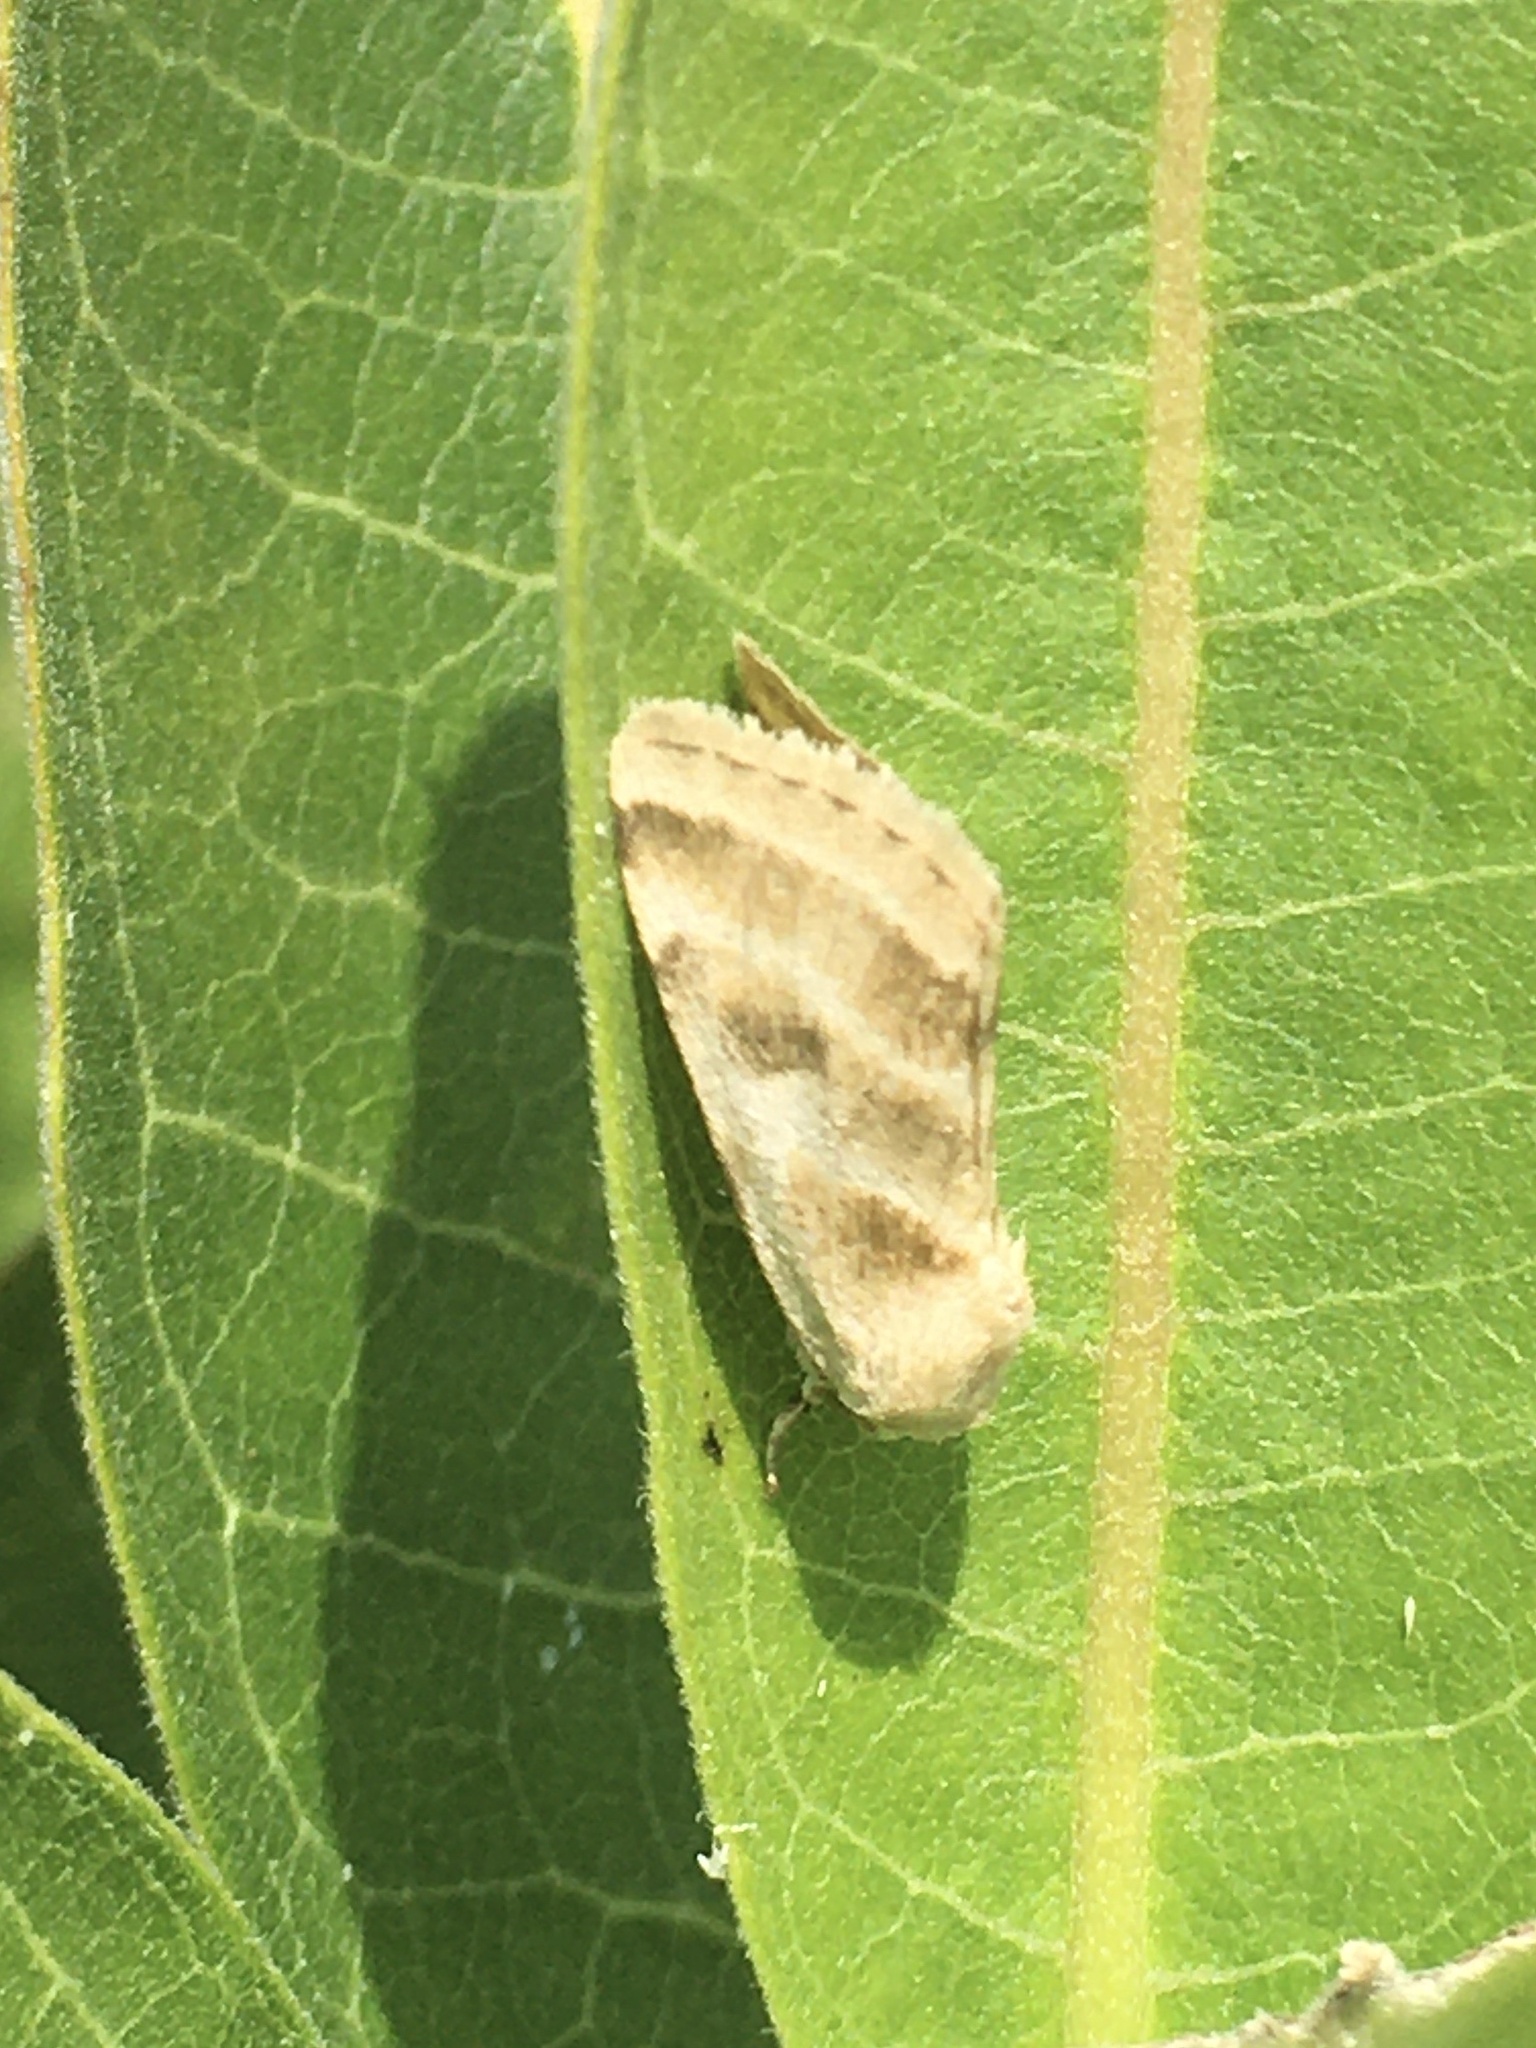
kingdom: Animalia
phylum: Arthropoda
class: Insecta
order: Lepidoptera
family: Noctuidae
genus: Schinia
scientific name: Schinia trifascia
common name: Three-lined flower moth
